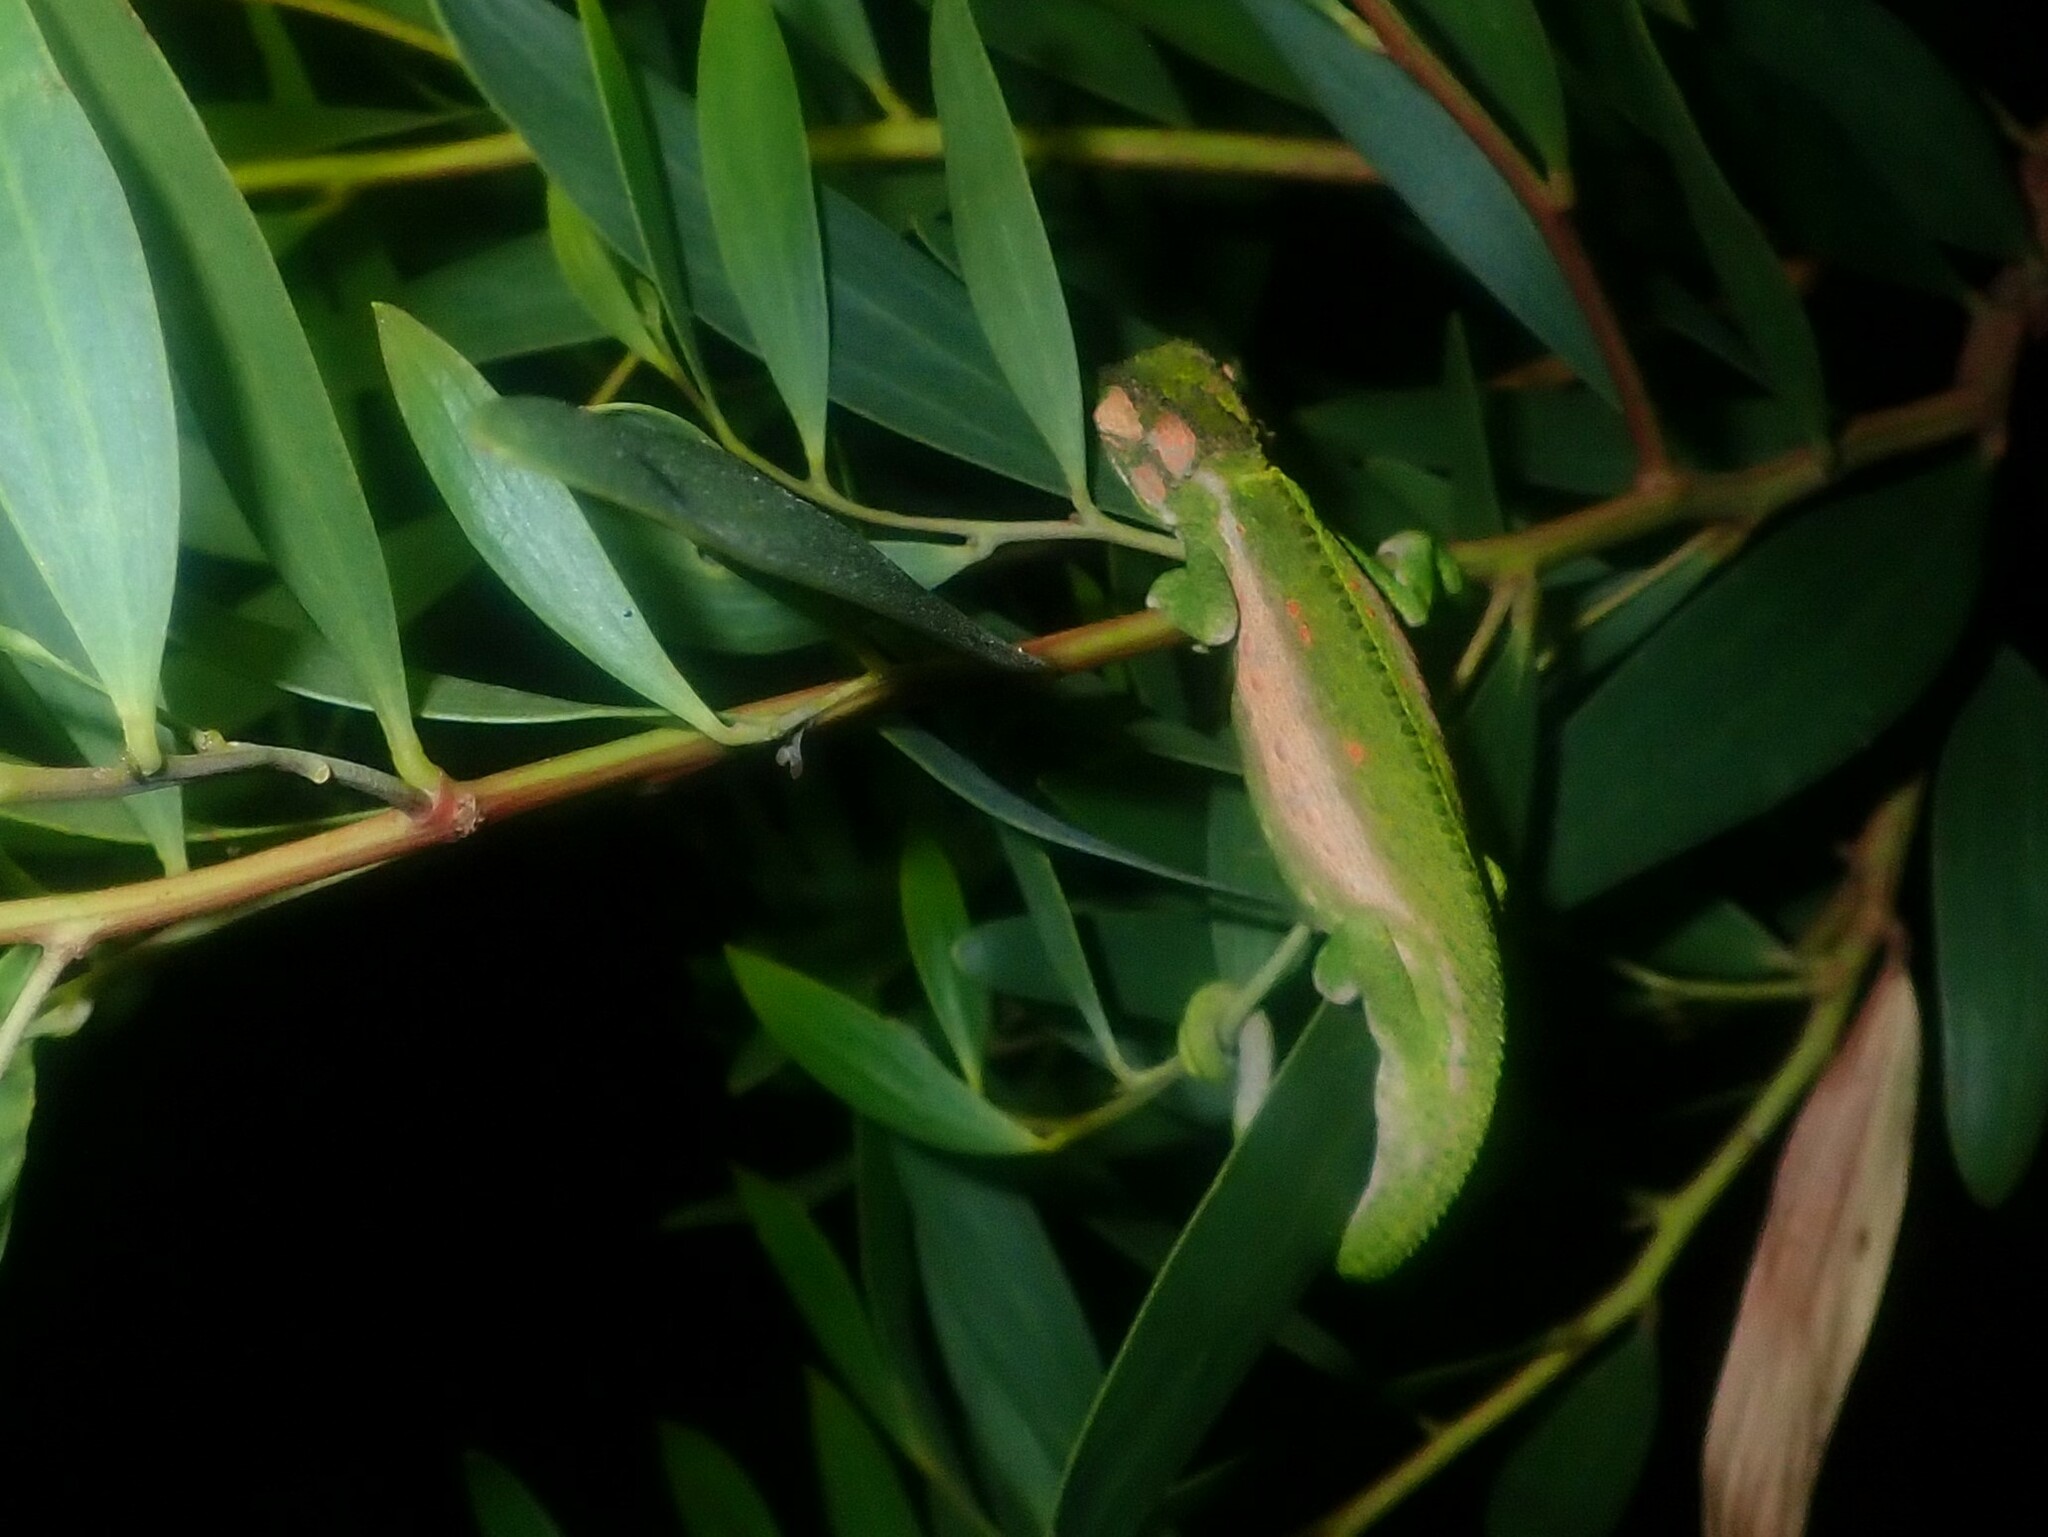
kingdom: Animalia
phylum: Chordata
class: Squamata
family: Chamaeleonidae
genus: Bradypodion
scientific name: Bradypodion pumilum
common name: Cape dwarf chameleon
